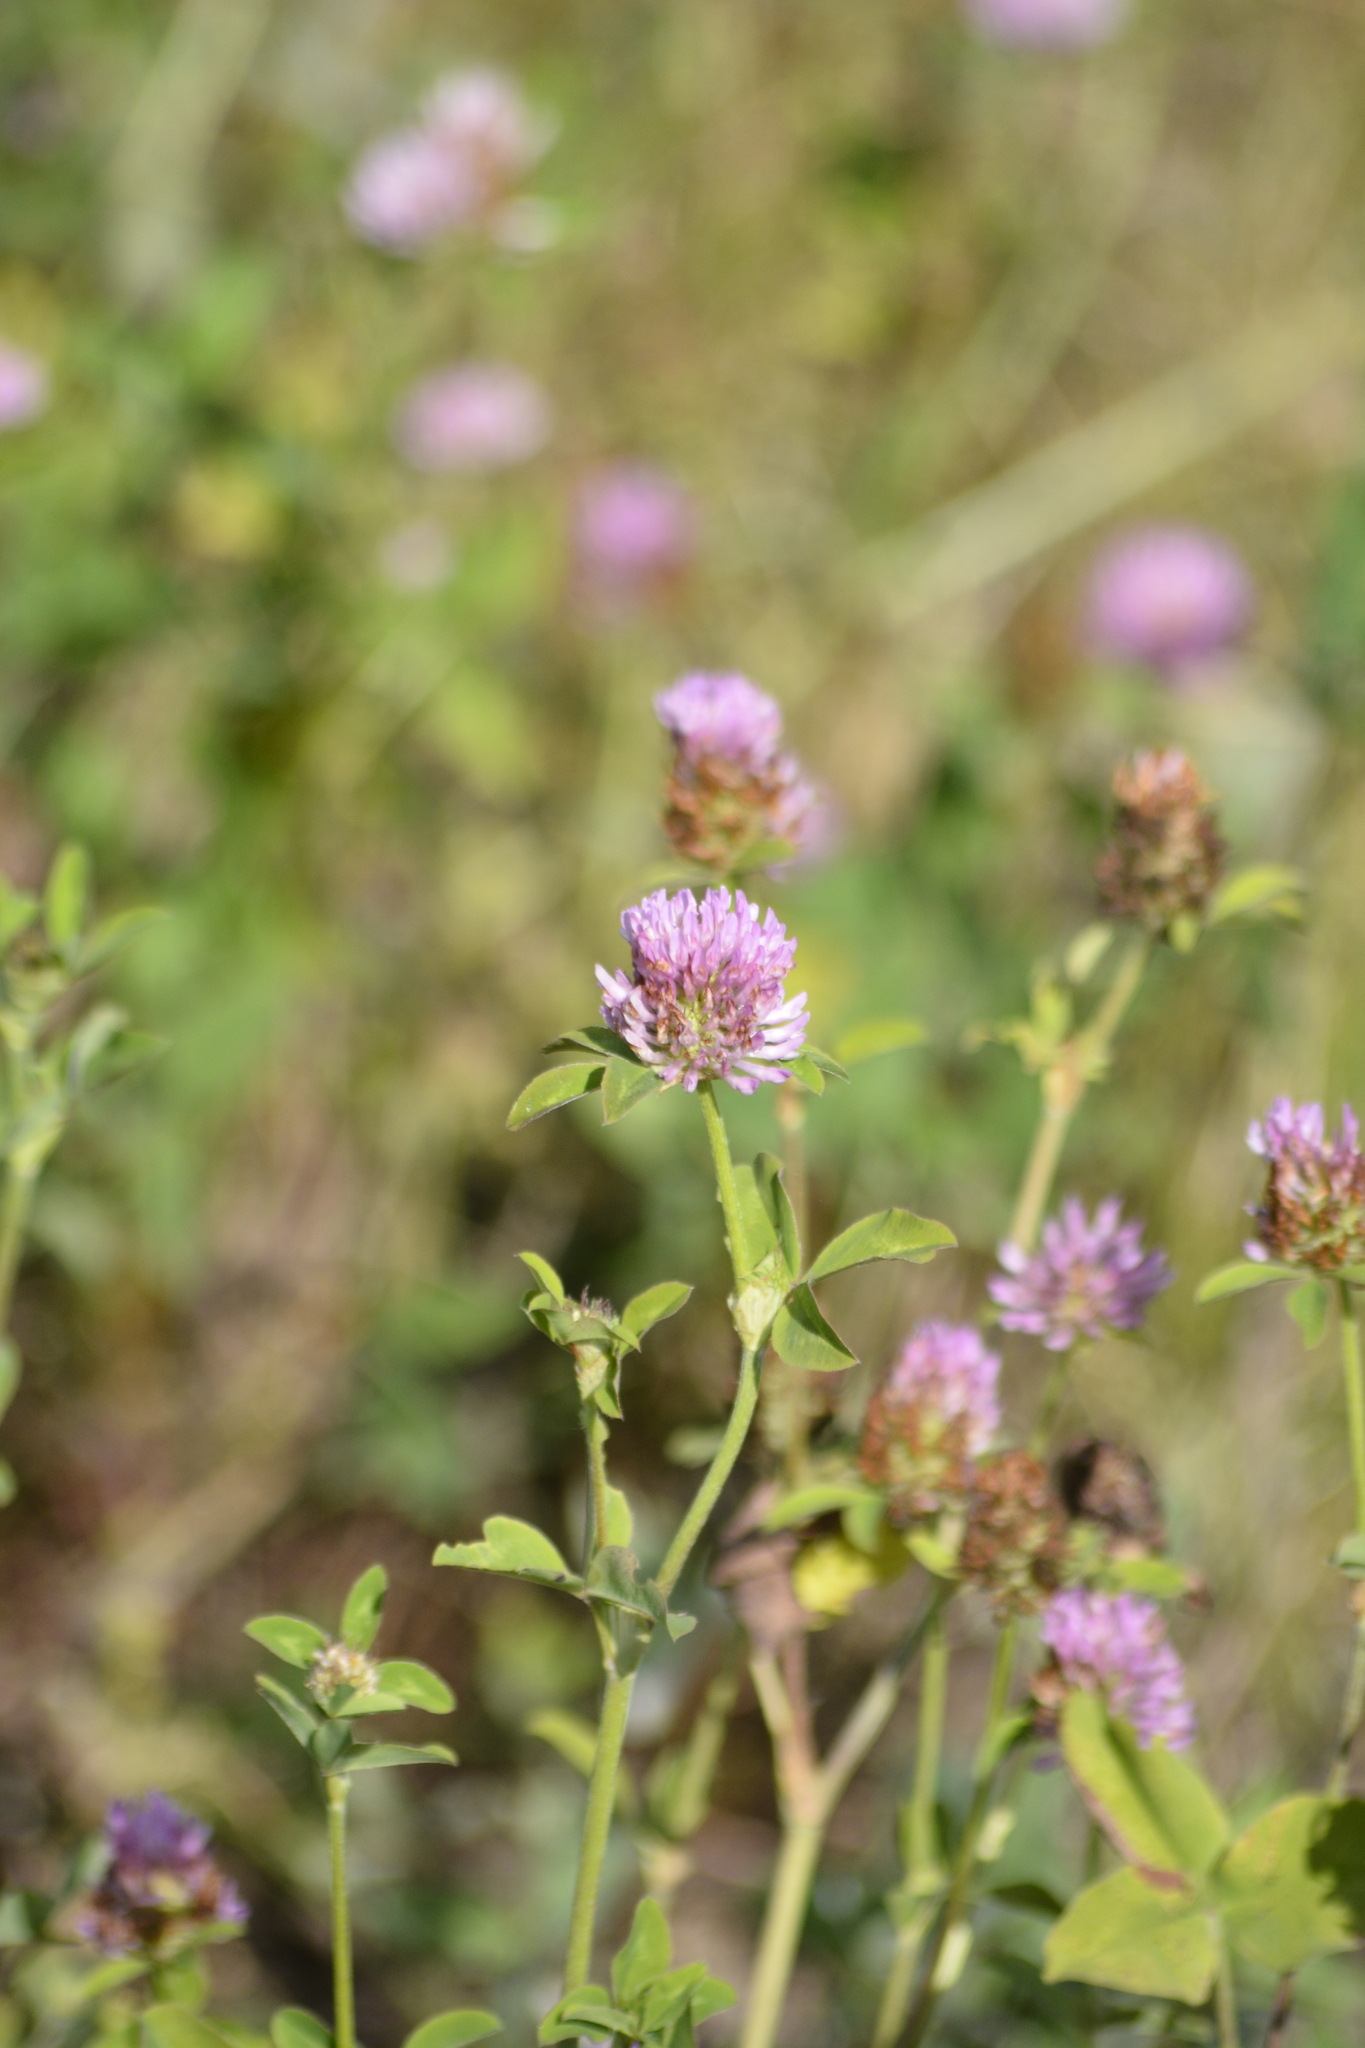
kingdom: Plantae
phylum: Tracheophyta
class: Magnoliopsida
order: Fabales
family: Fabaceae
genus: Trifolium
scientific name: Trifolium pratense
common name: Red clover
